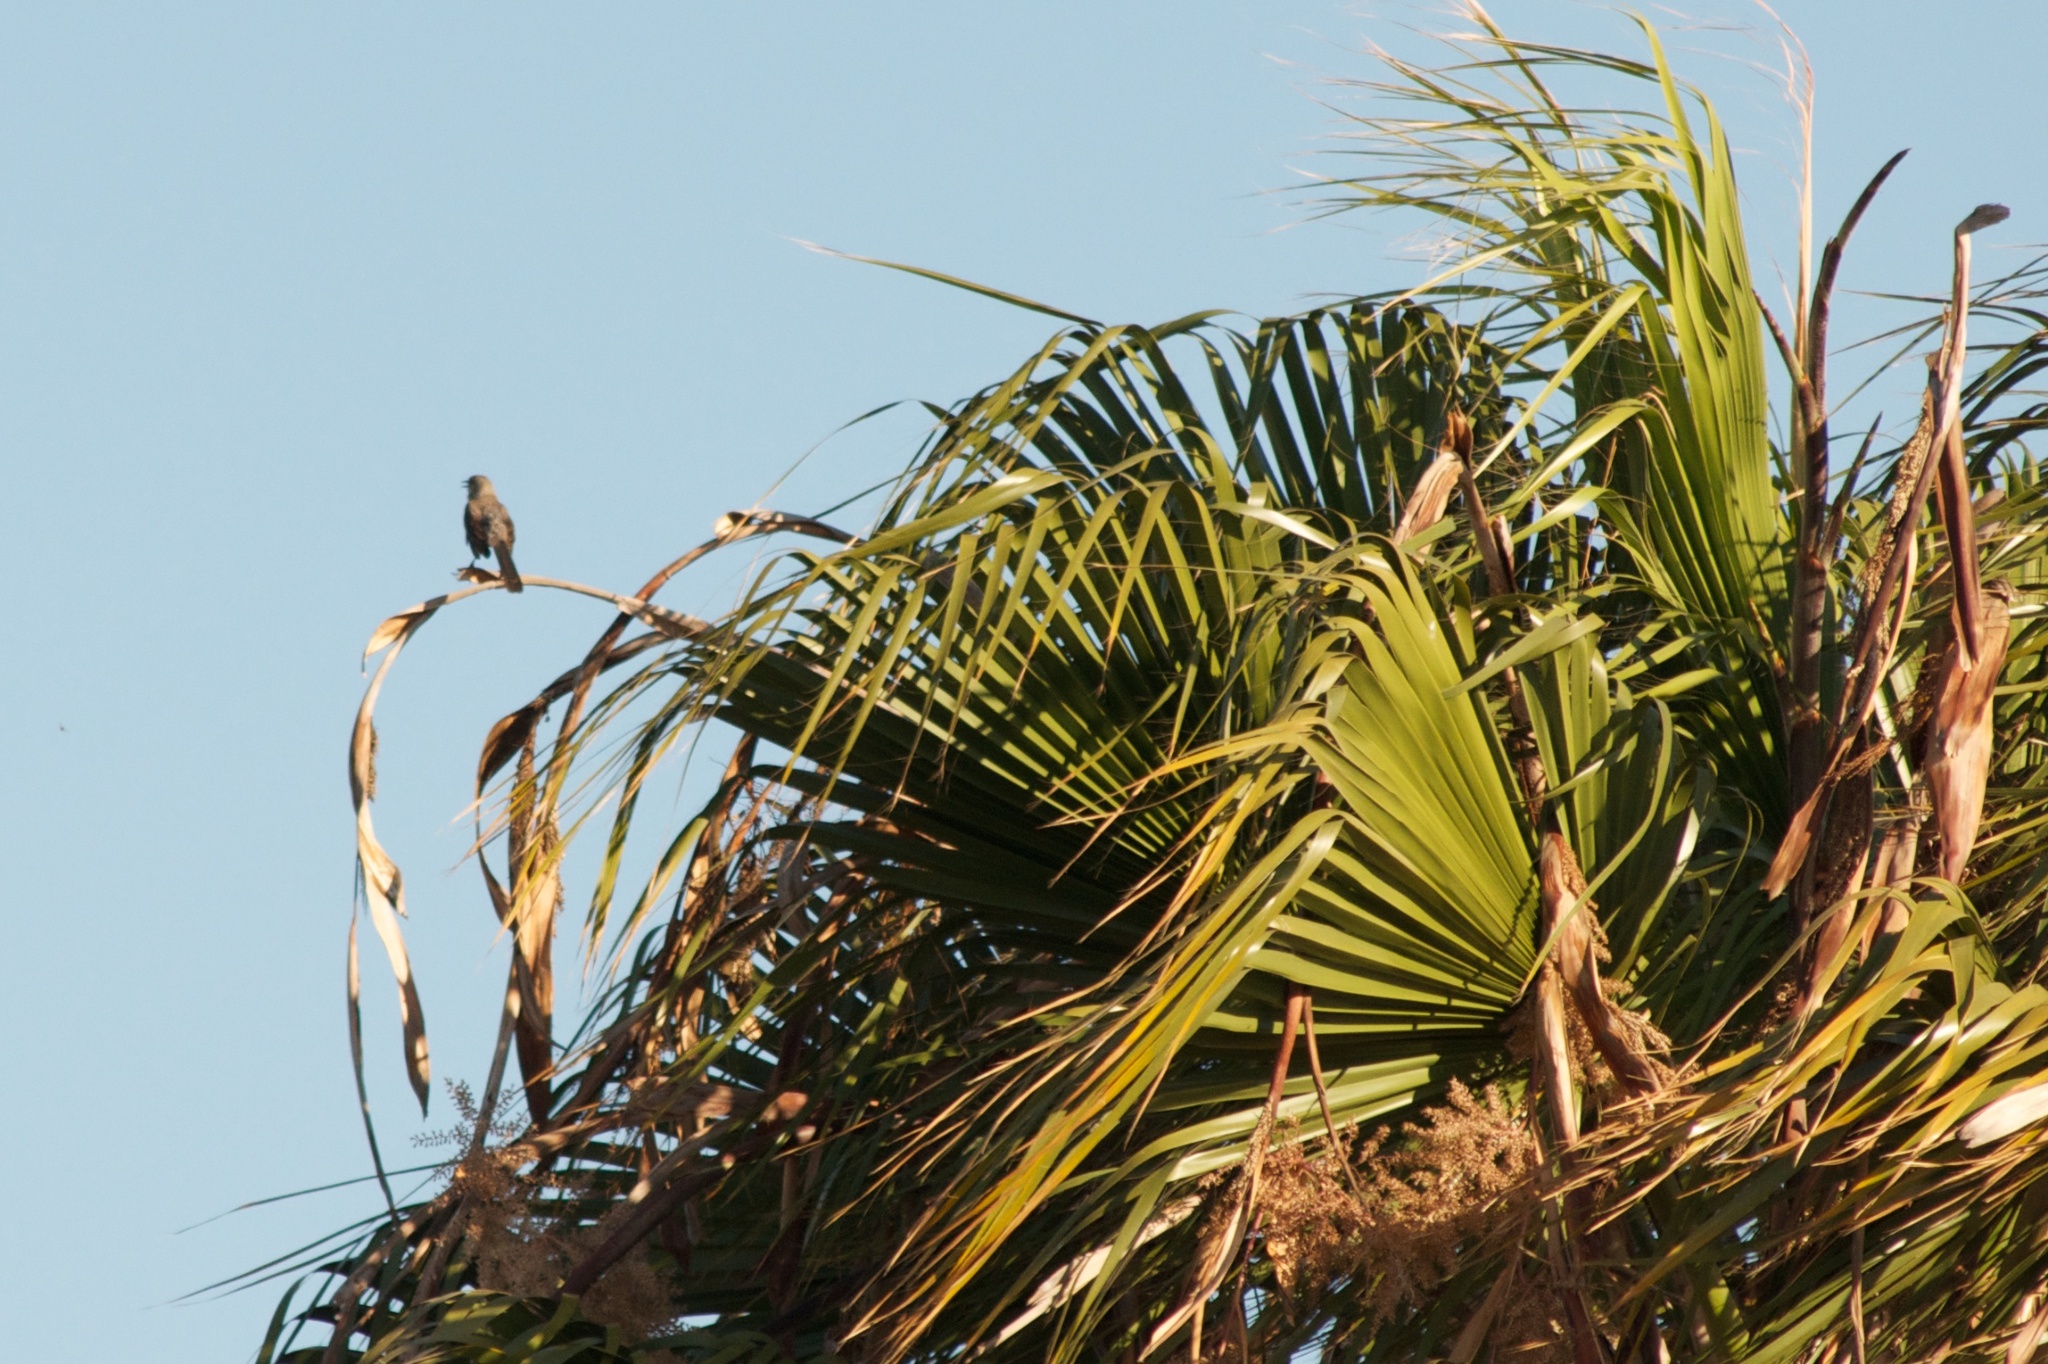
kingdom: Animalia
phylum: Chordata
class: Aves
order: Passeriformes
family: Mimidae
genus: Mimus
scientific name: Mimus polyglottos
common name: Northern mockingbird
